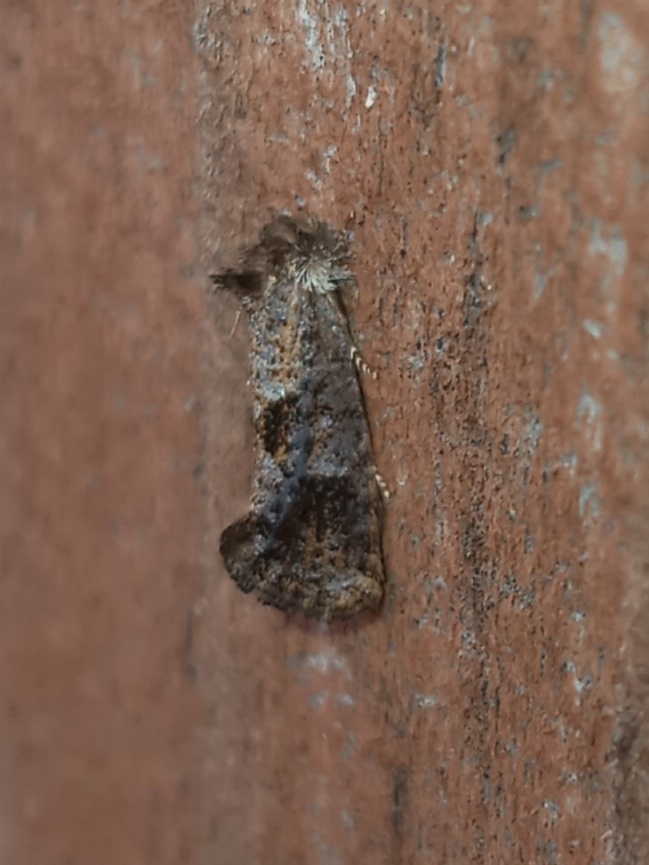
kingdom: Animalia
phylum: Arthropoda
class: Insecta
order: Lepidoptera
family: Tineidae
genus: Acrolophus
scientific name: Acrolophus panamae
